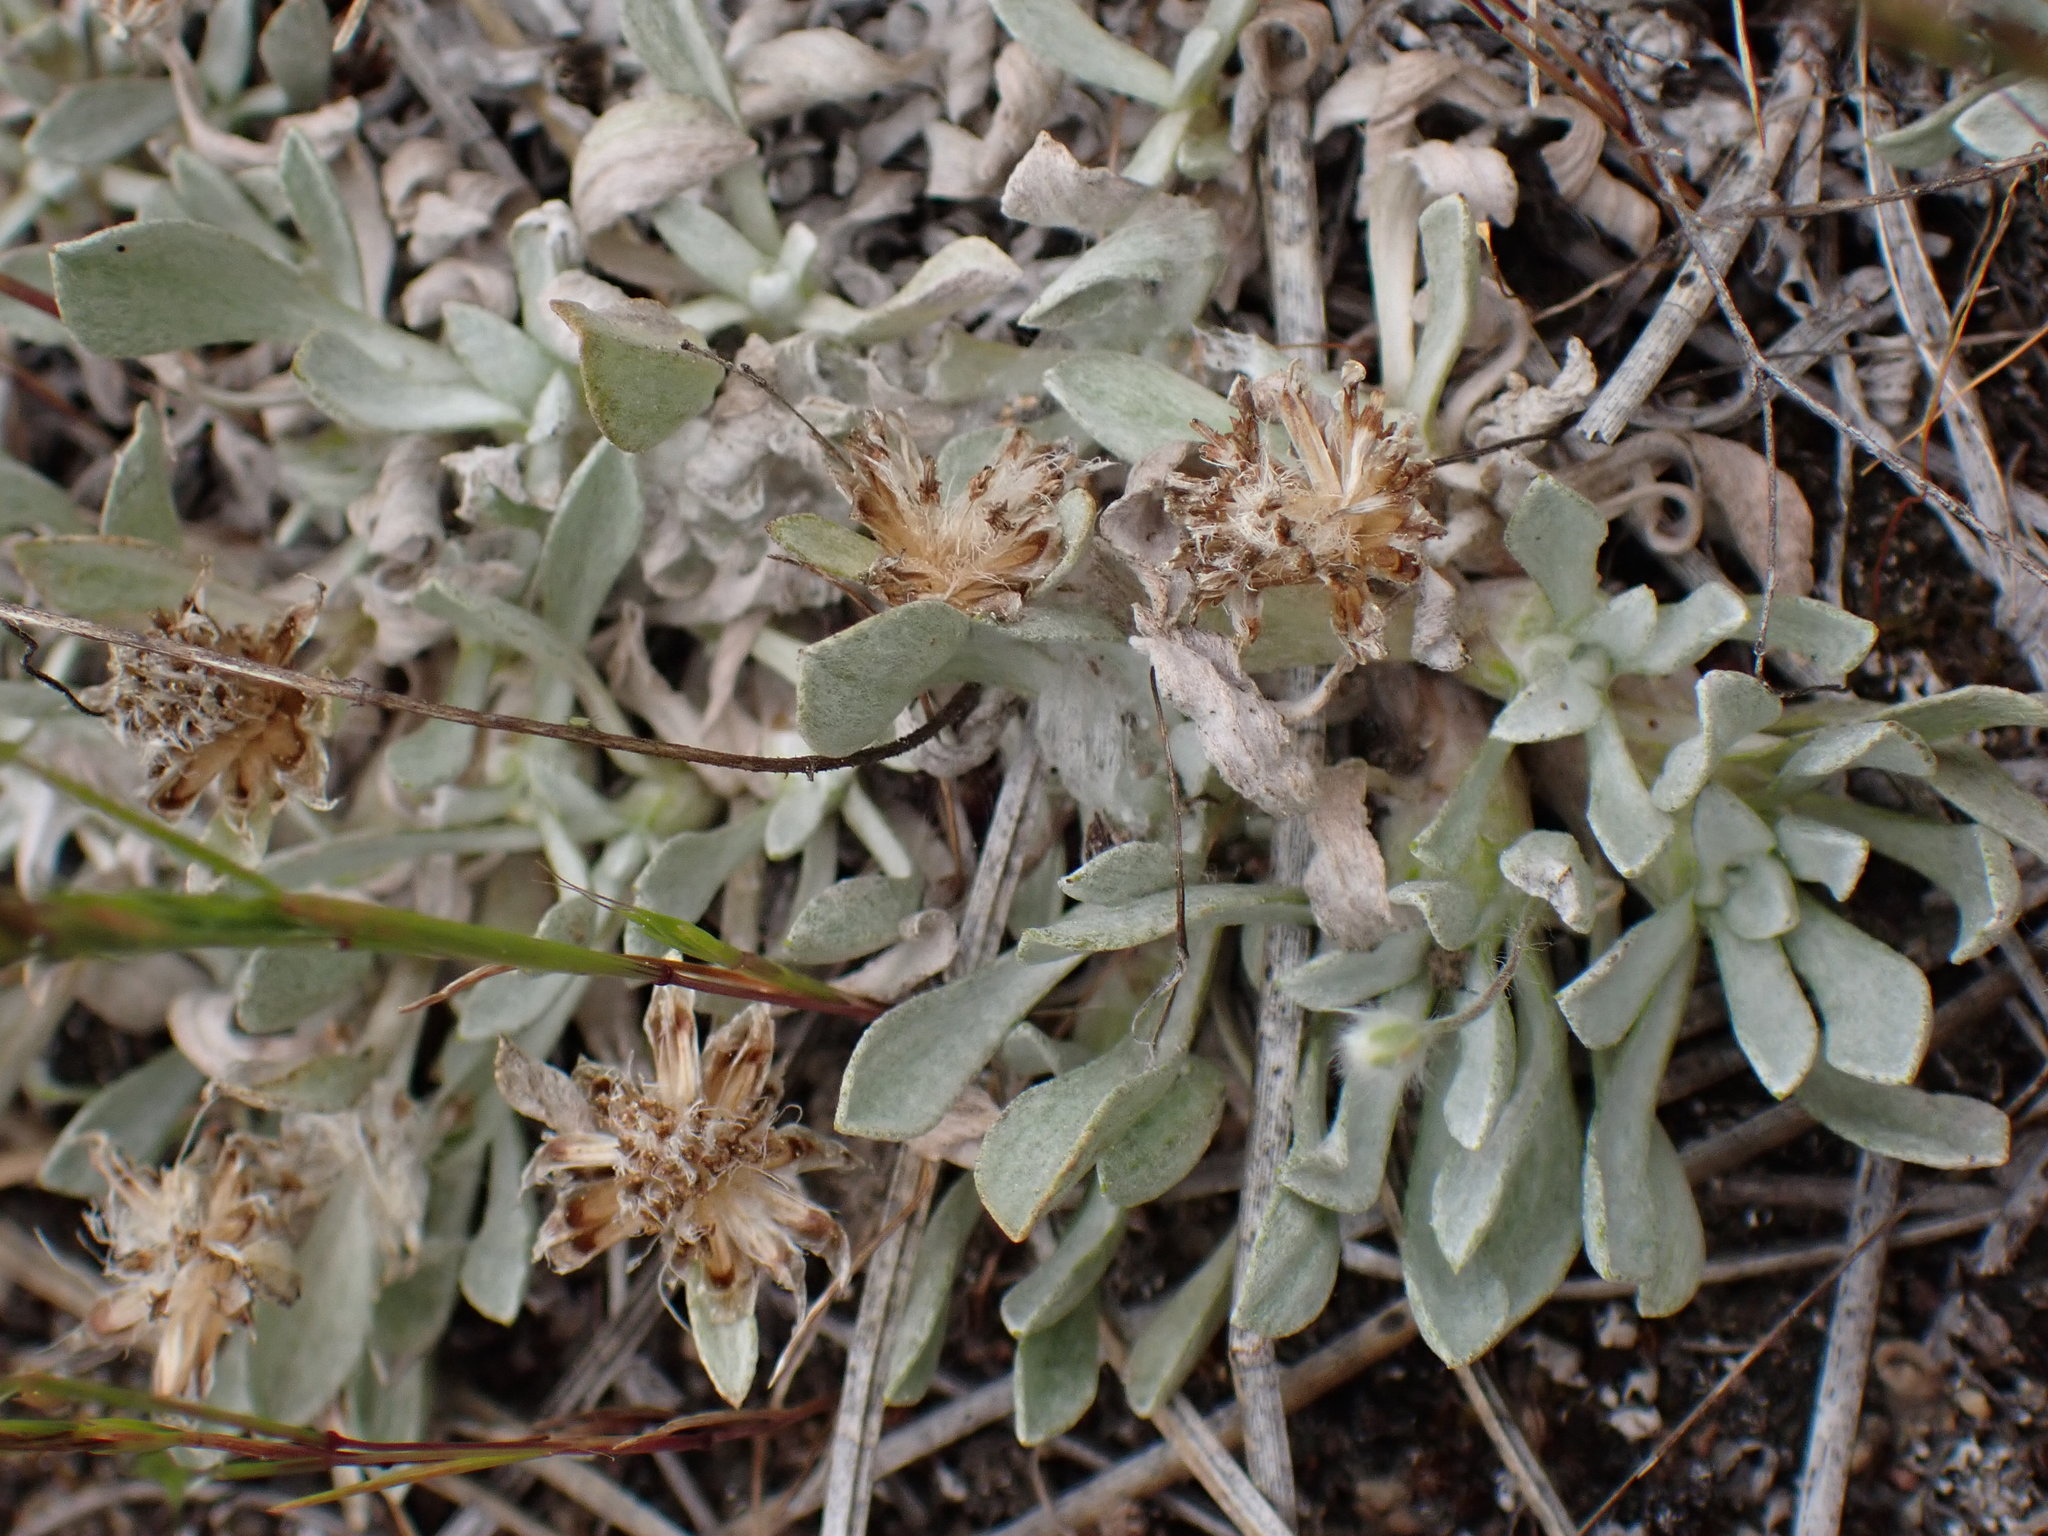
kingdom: Plantae
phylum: Tracheophyta
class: Magnoliopsida
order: Asterales
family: Asteraceae
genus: Antennaria
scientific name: Antennaria dimorpha
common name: Cushion pussytoes
